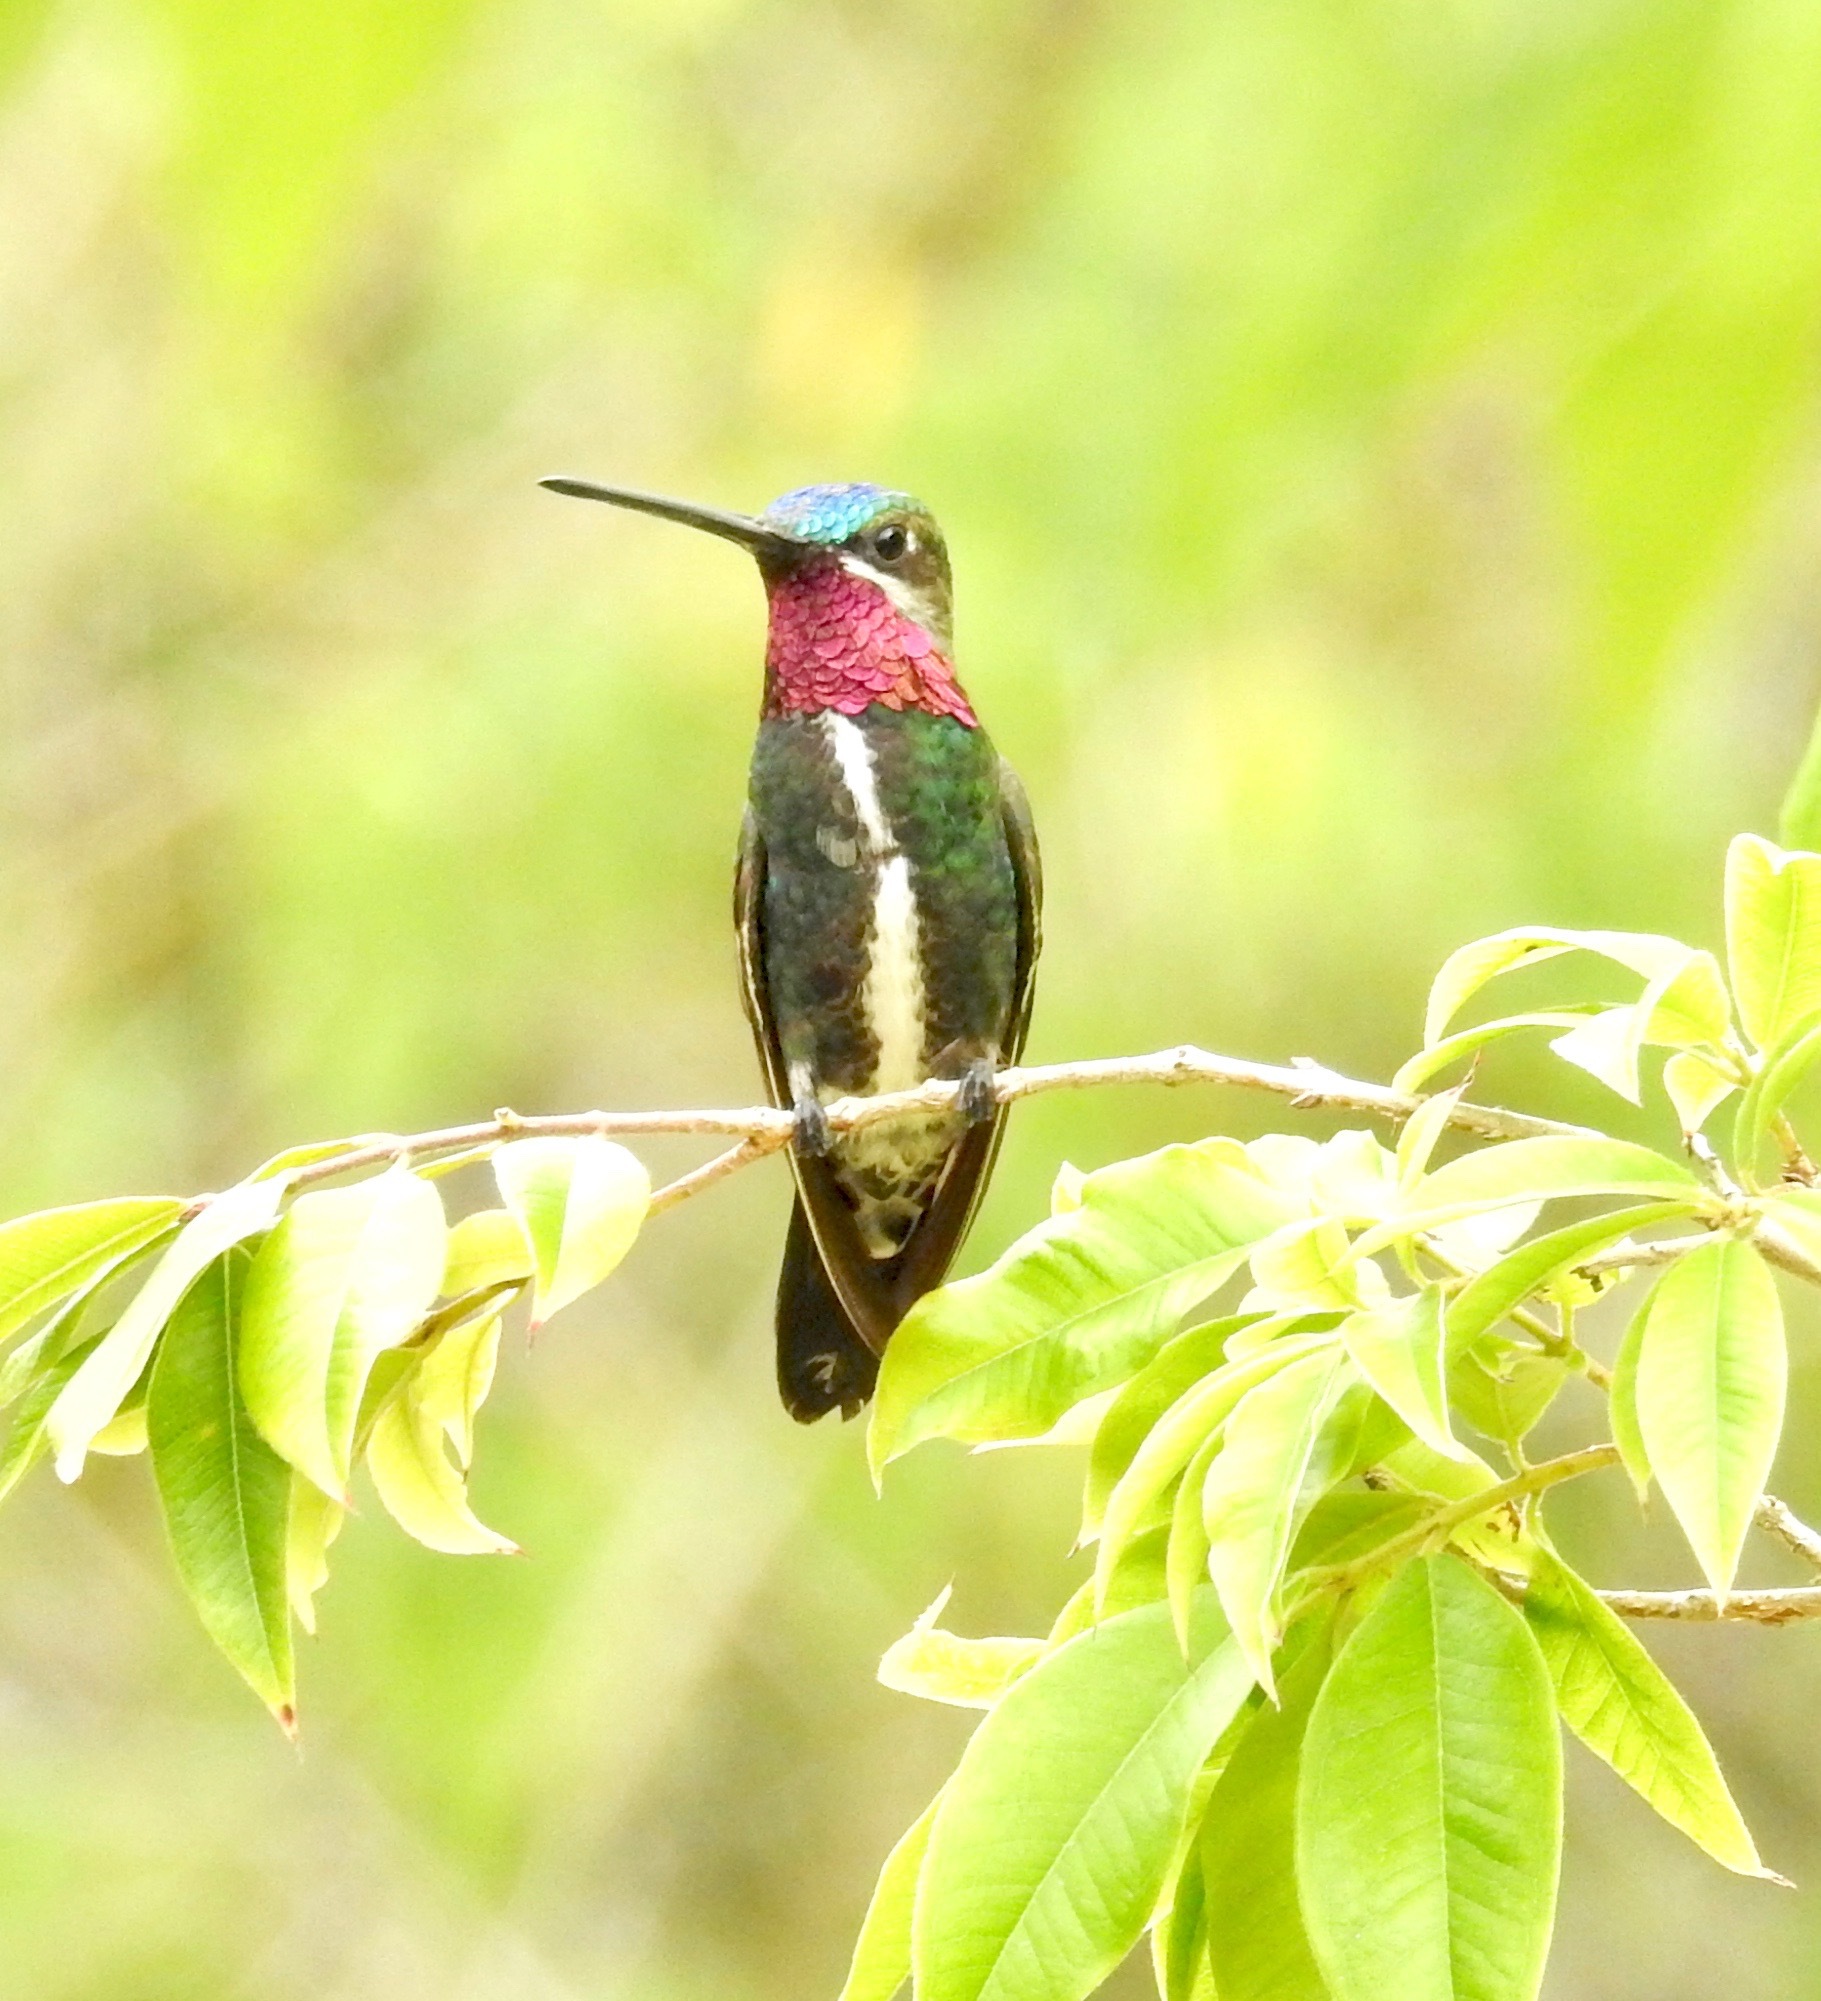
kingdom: Animalia
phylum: Chordata
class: Aves
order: Apodiformes
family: Trochilidae
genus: Heliomaster
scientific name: Heliomaster squamosus
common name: Stripe-breasted starthroat
